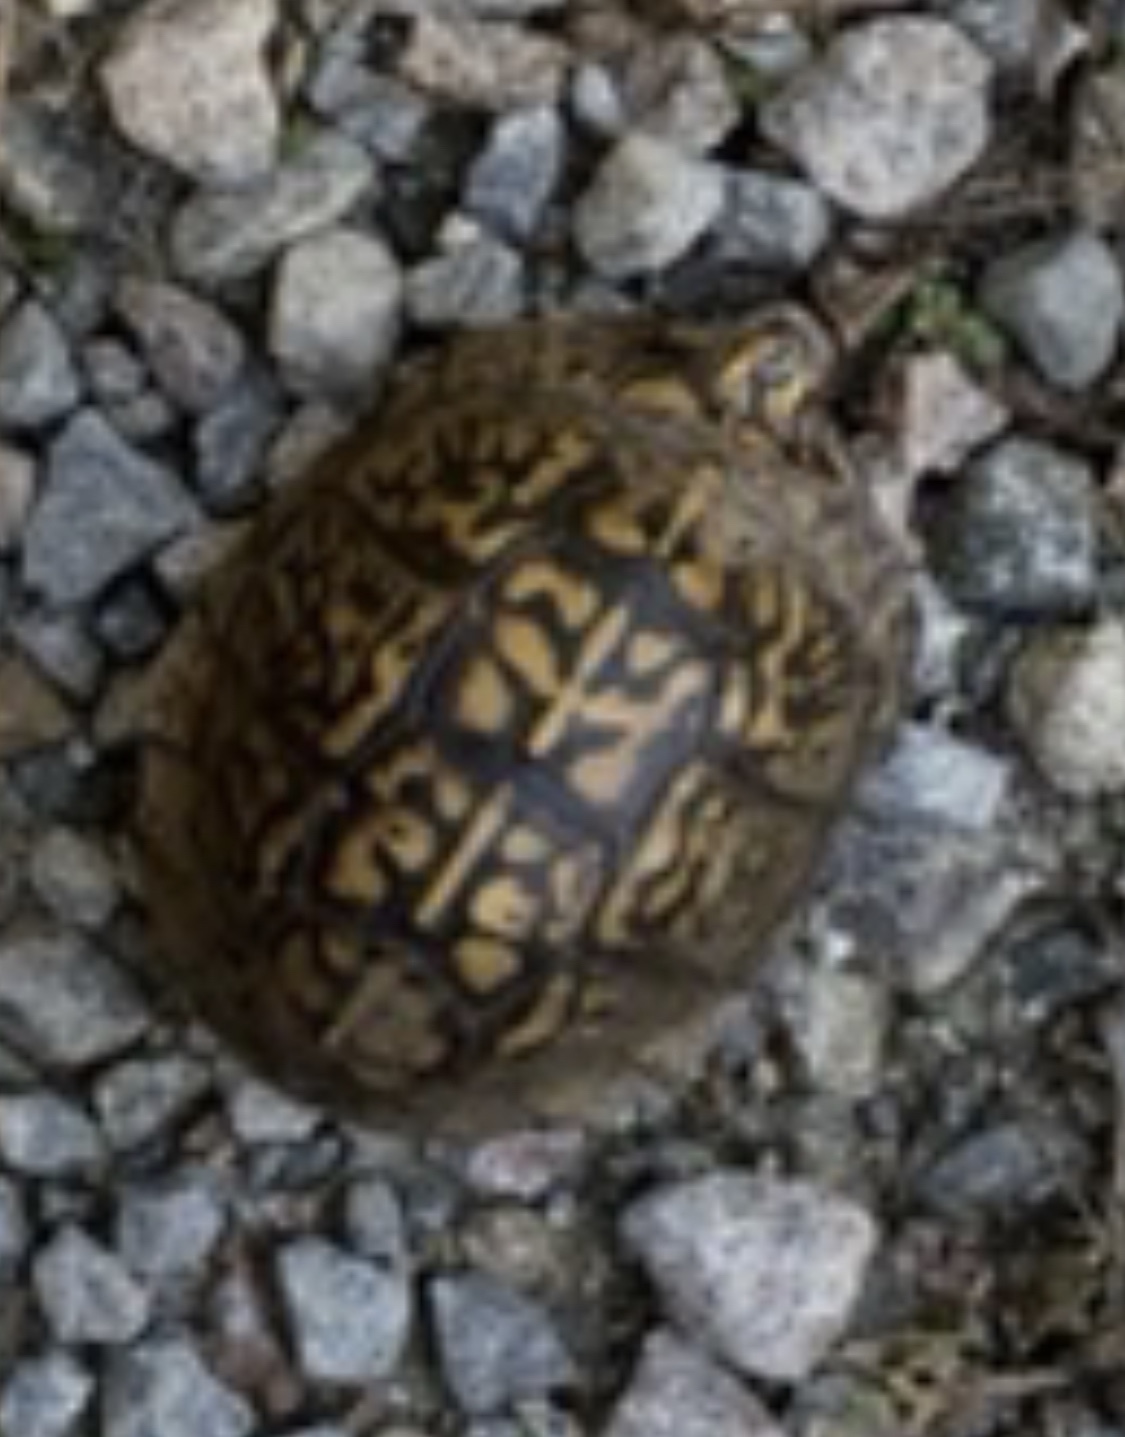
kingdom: Animalia
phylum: Chordata
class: Testudines
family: Emydidae
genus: Terrapene
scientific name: Terrapene carolina
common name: Common box turtle
